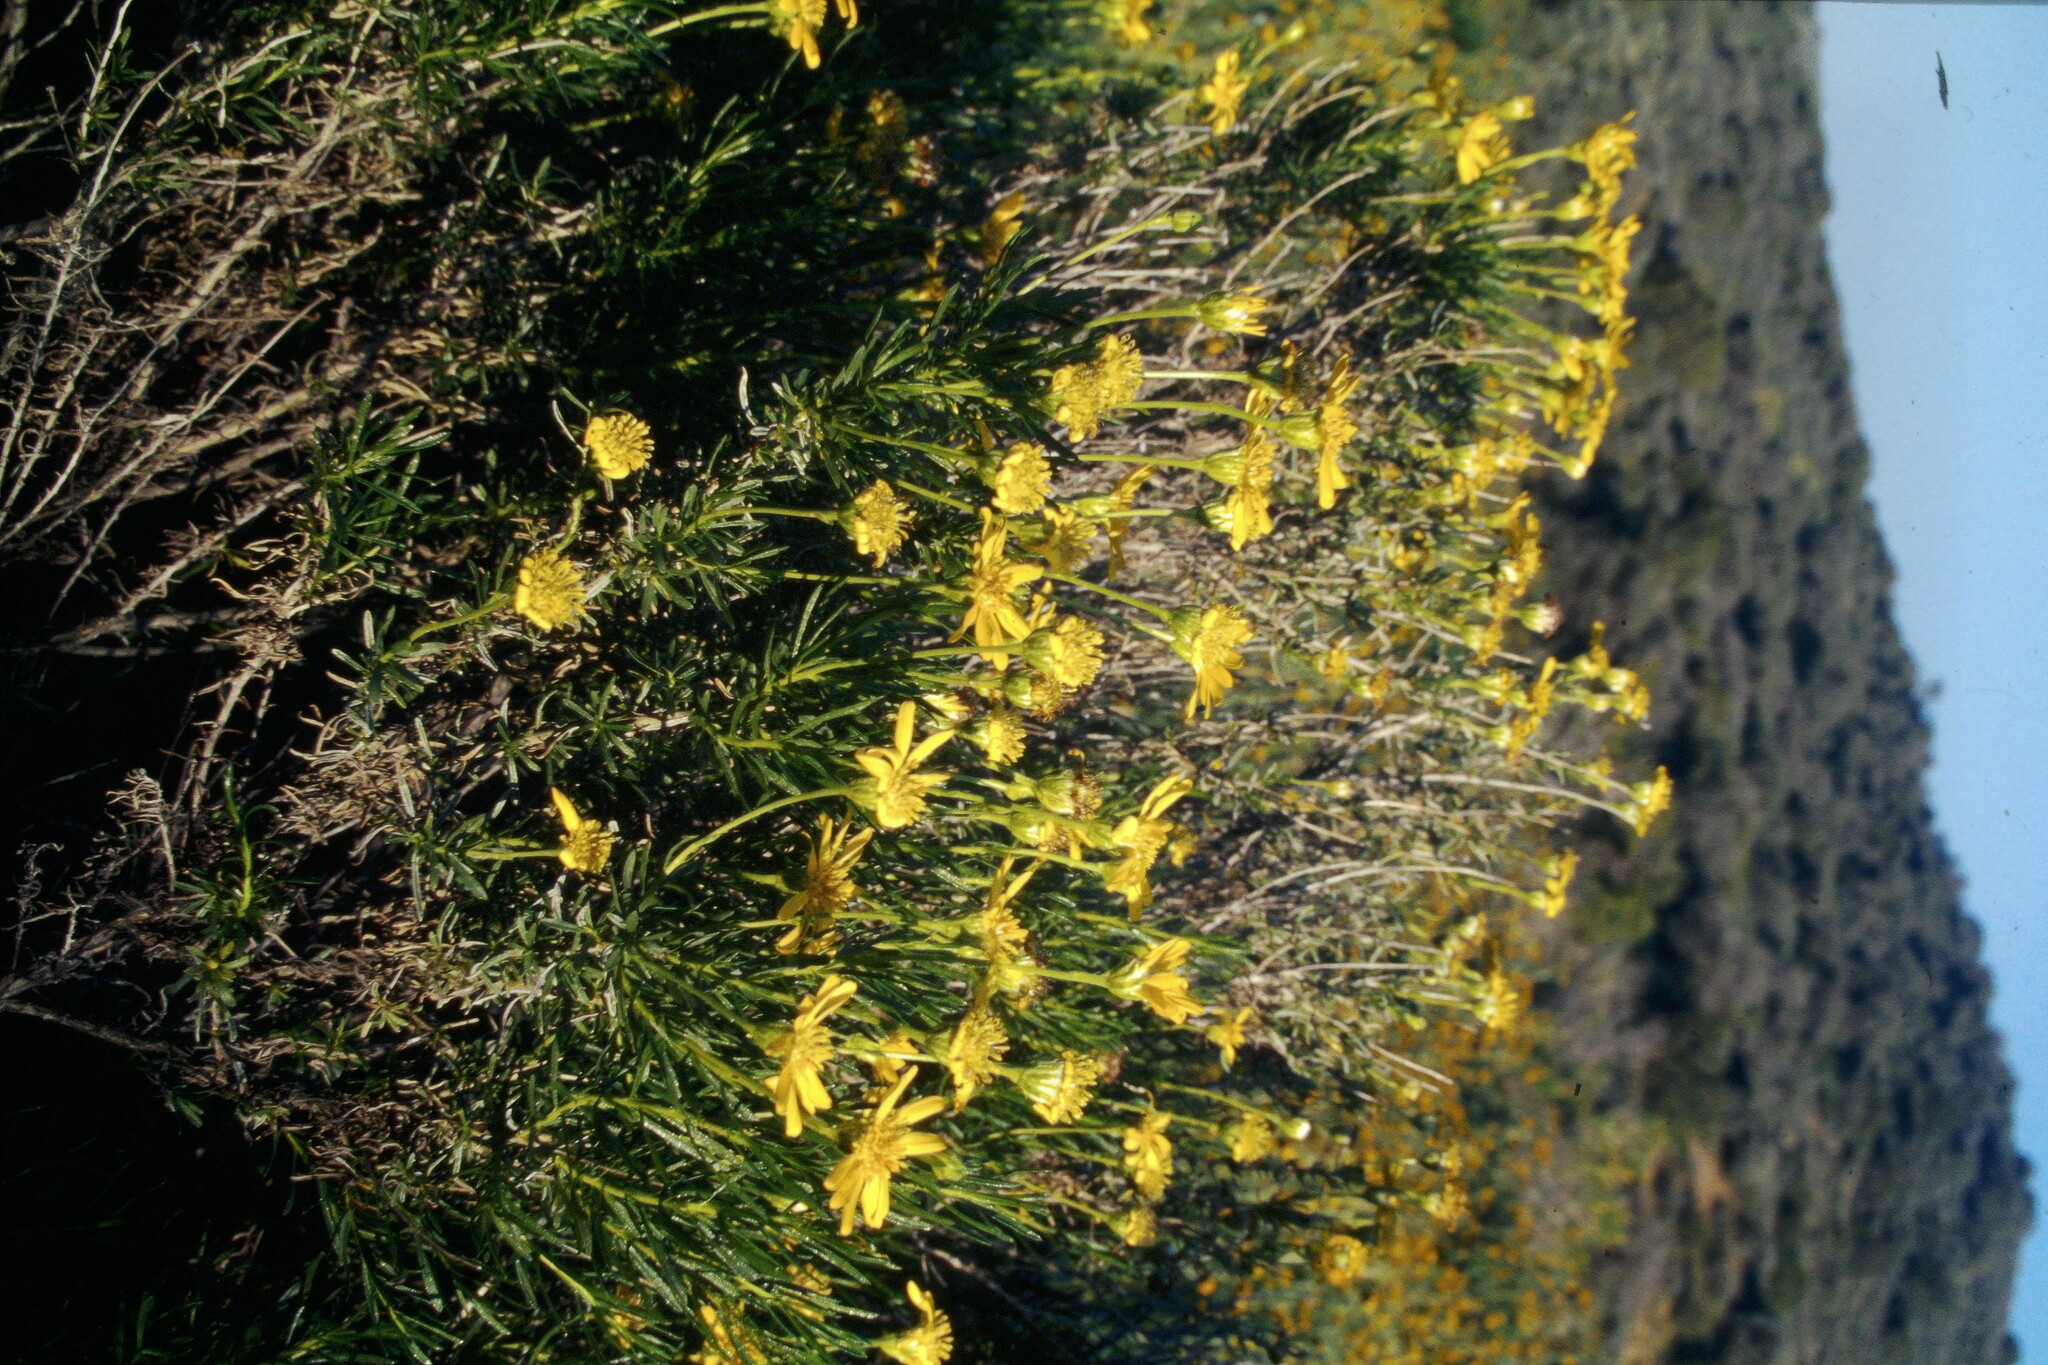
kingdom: Plantae
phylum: Tracheophyta
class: Magnoliopsida
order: Asterales
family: Asteraceae
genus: Ericameria
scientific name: Ericameria linearifolia
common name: Interior goldenbush
